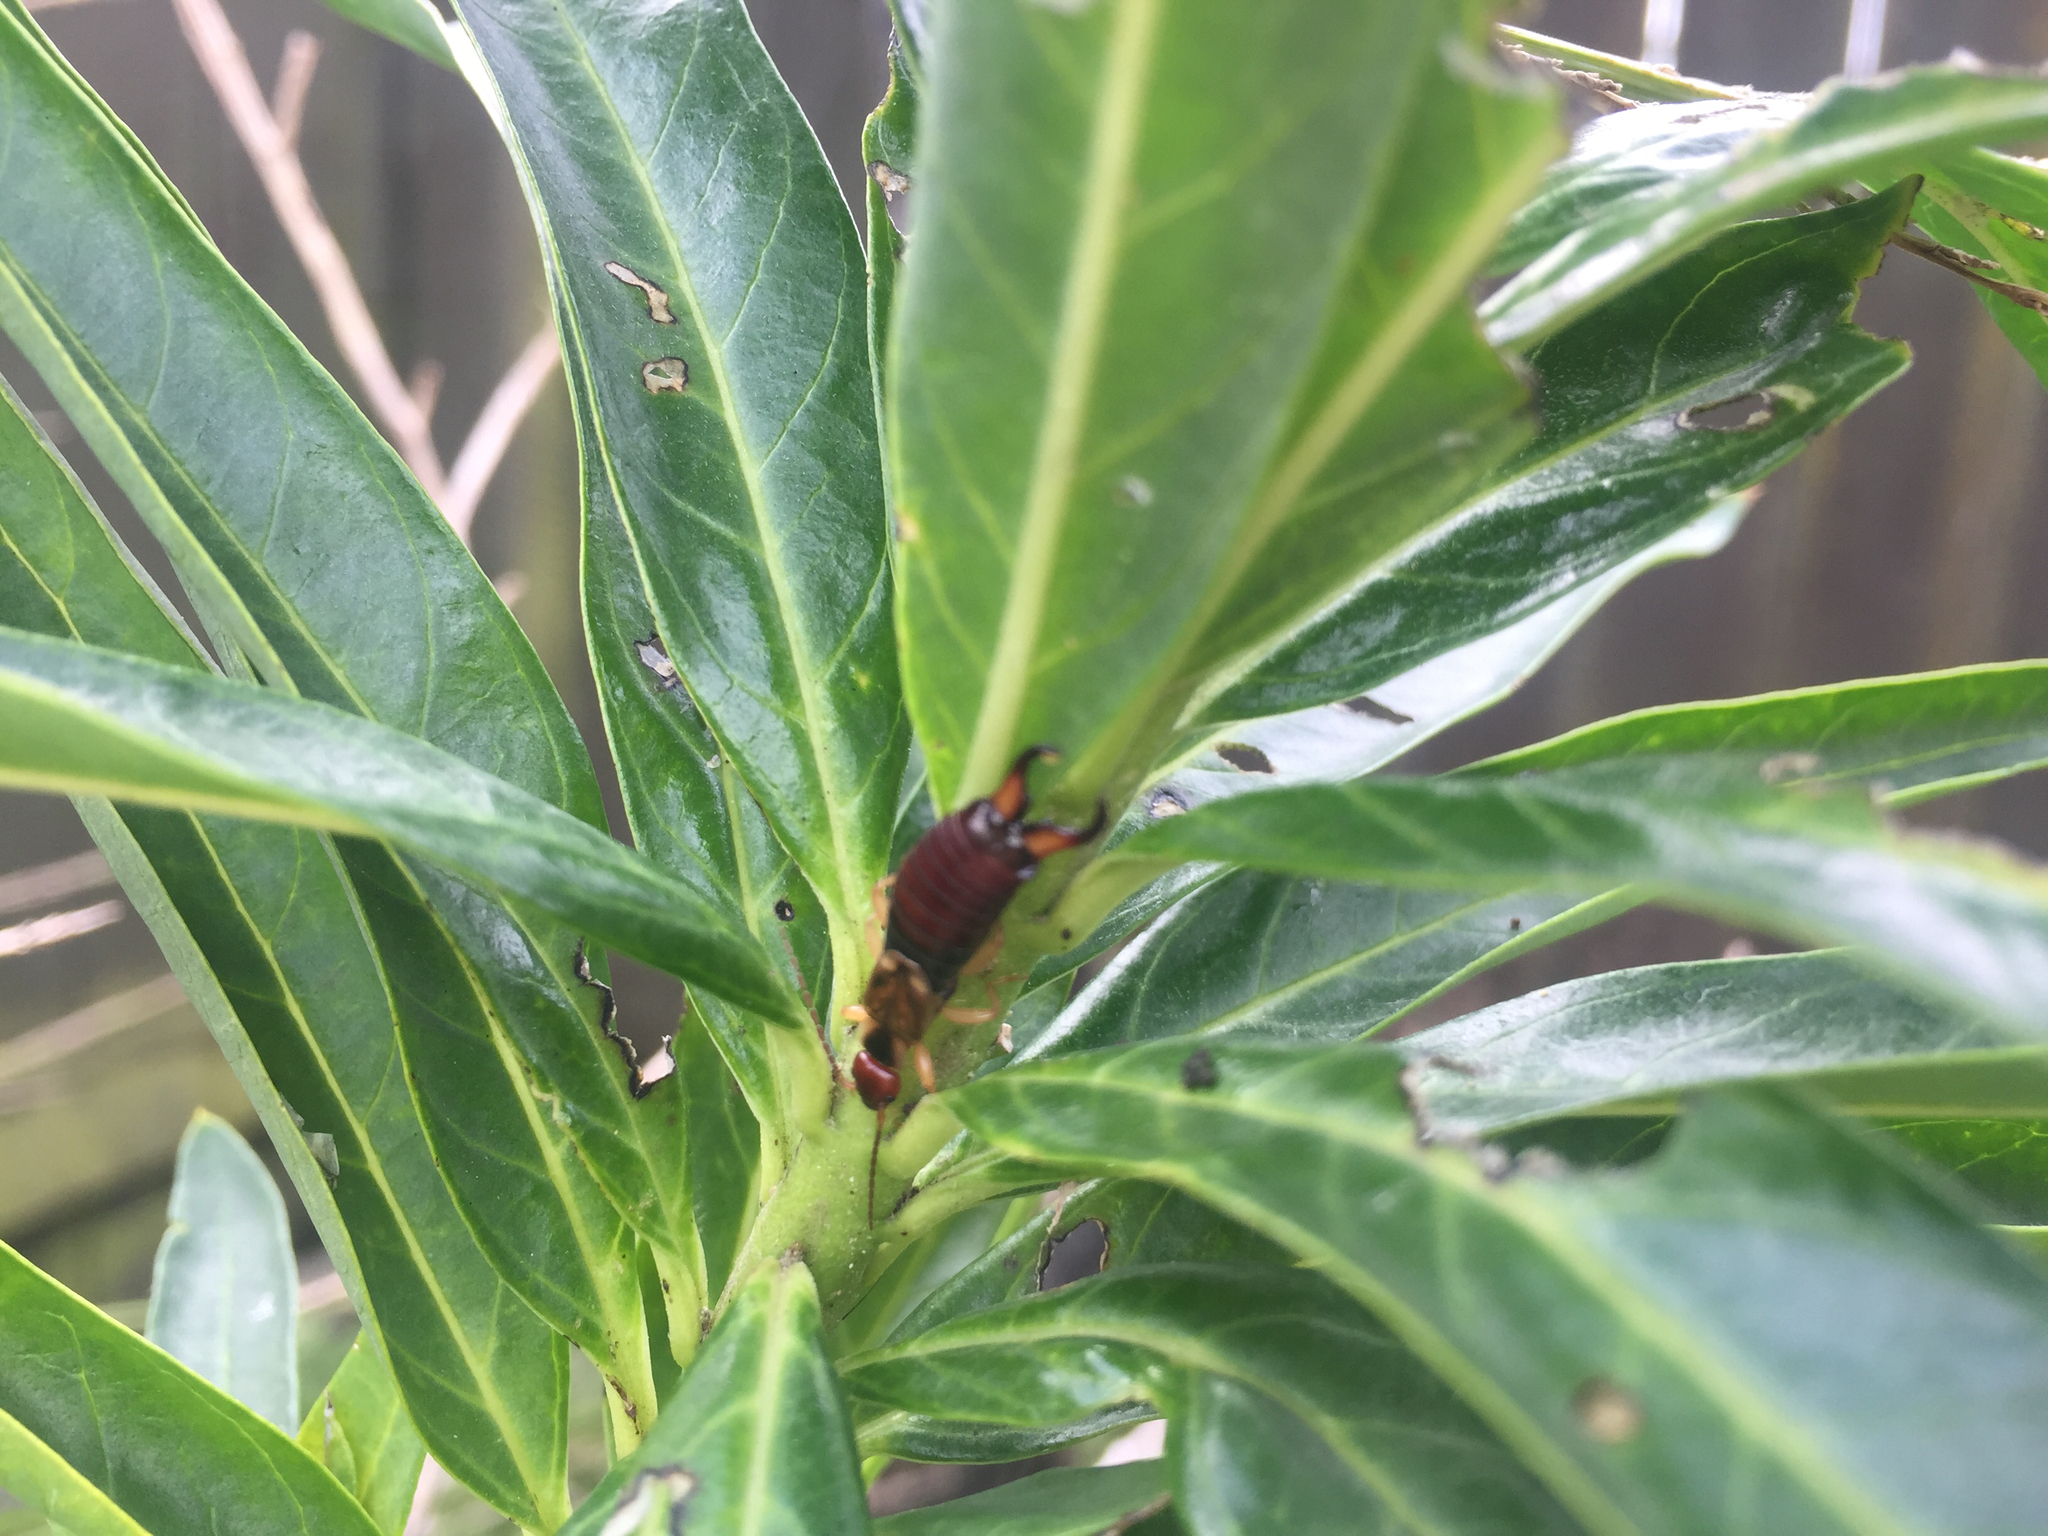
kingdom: Animalia
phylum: Arthropoda
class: Insecta
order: Dermaptera
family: Forficulidae
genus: Forficula
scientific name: Forficula
